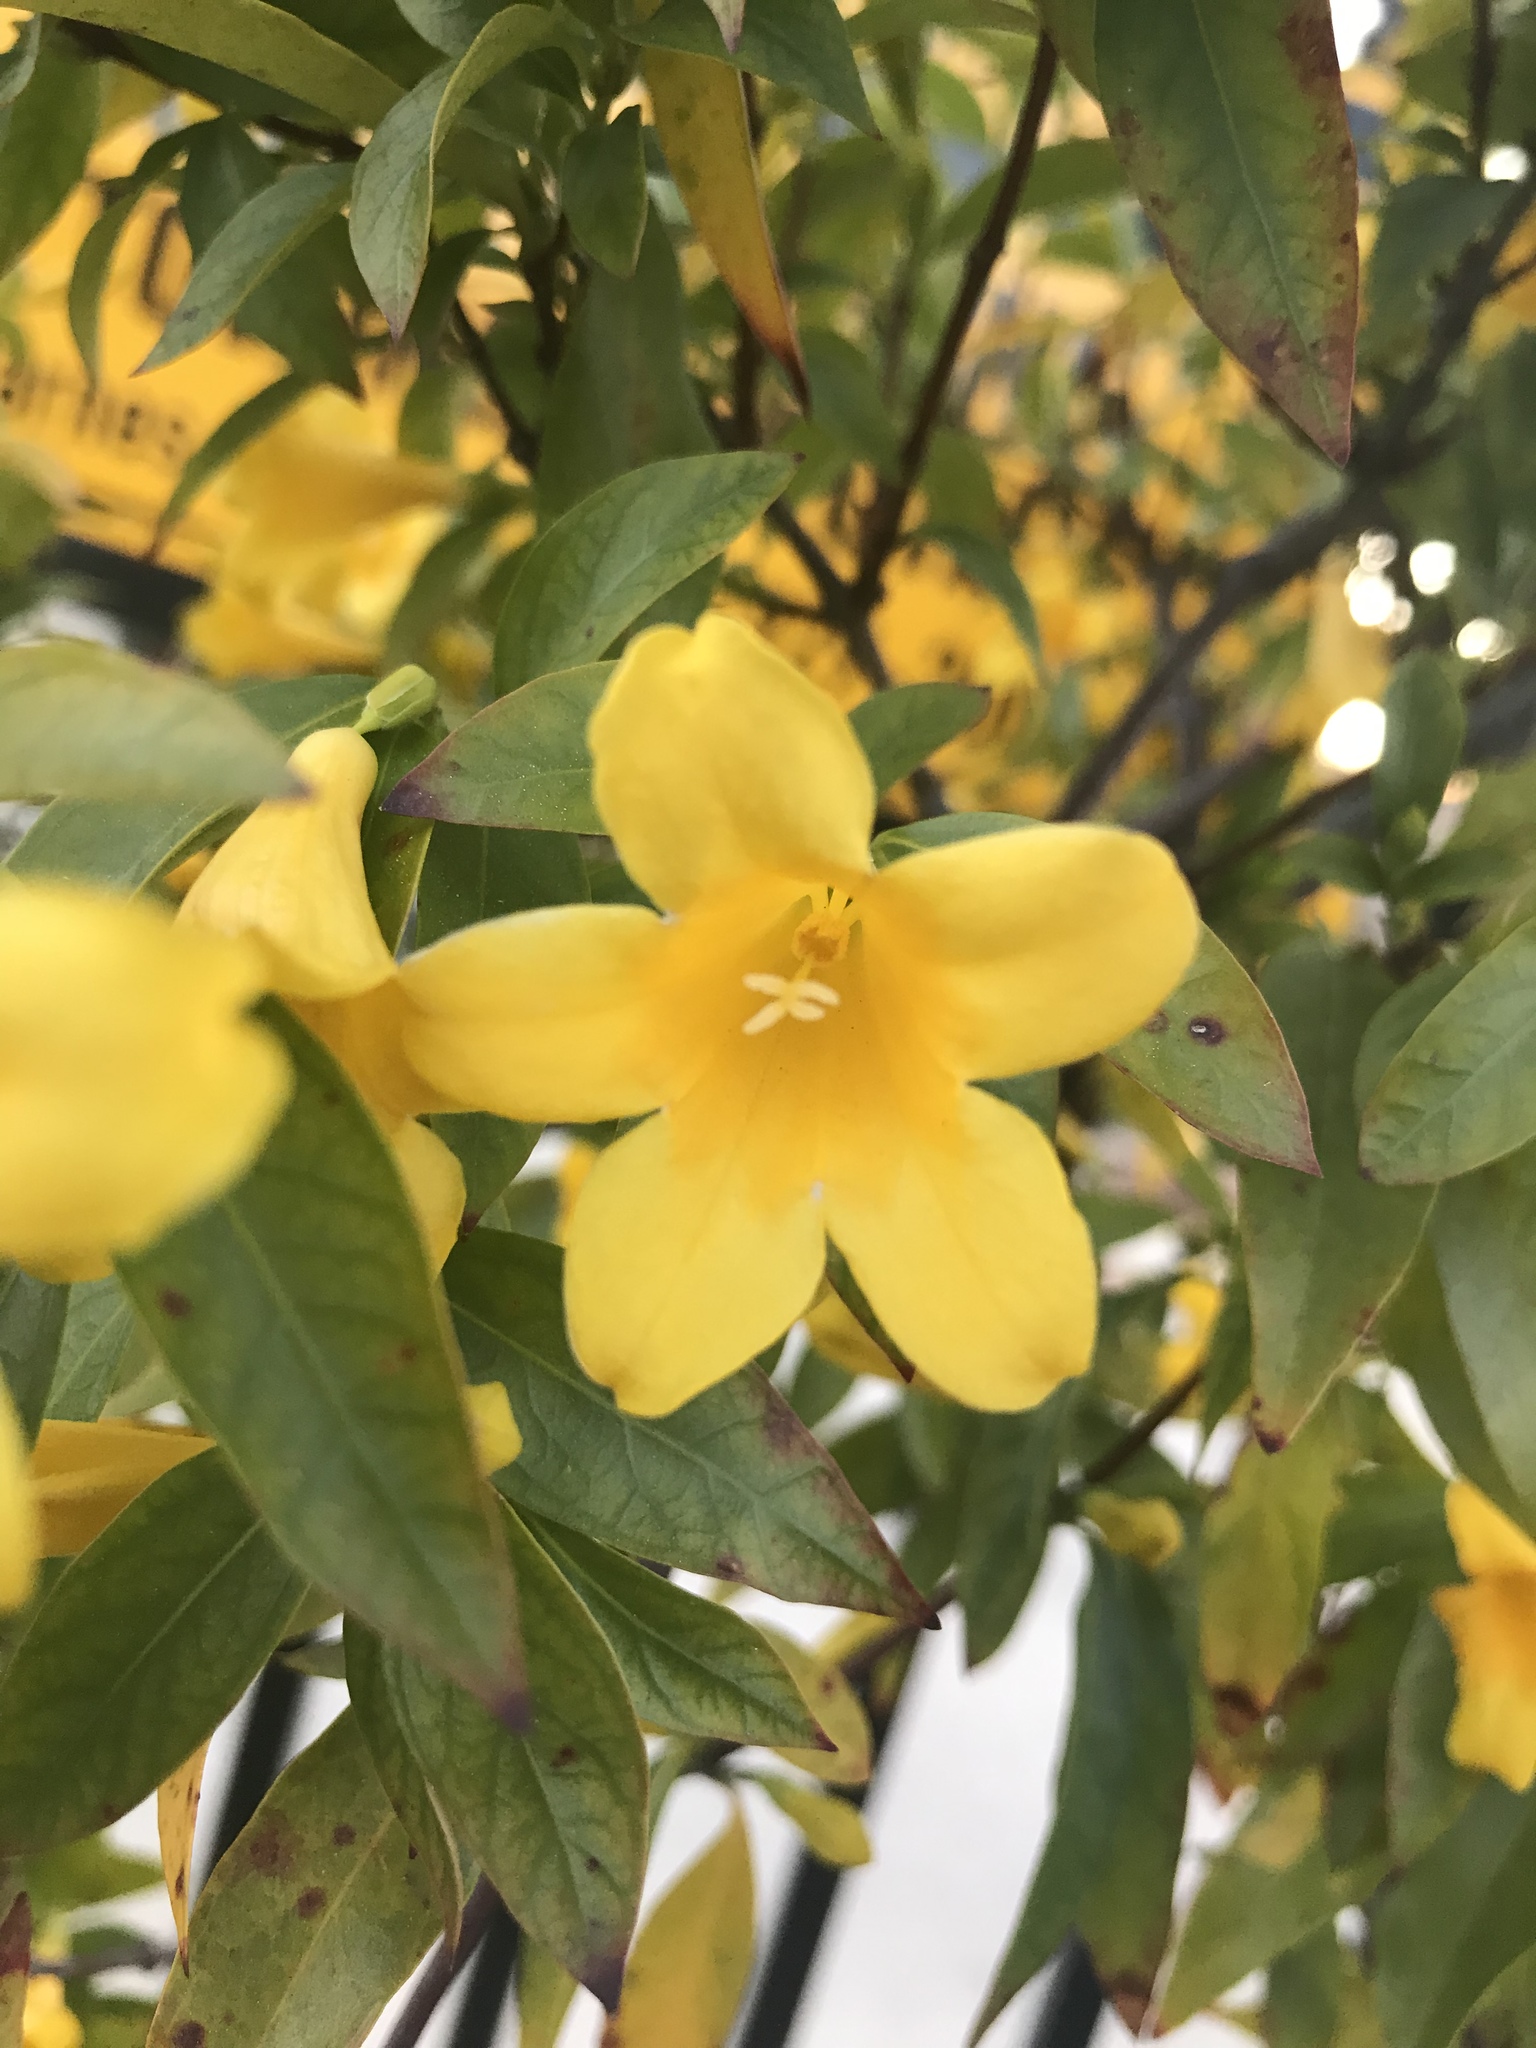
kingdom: Plantae
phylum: Tracheophyta
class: Magnoliopsida
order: Gentianales
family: Gelsemiaceae
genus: Gelsemium
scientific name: Gelsemium sempervirens
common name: Carolina-jasmine
